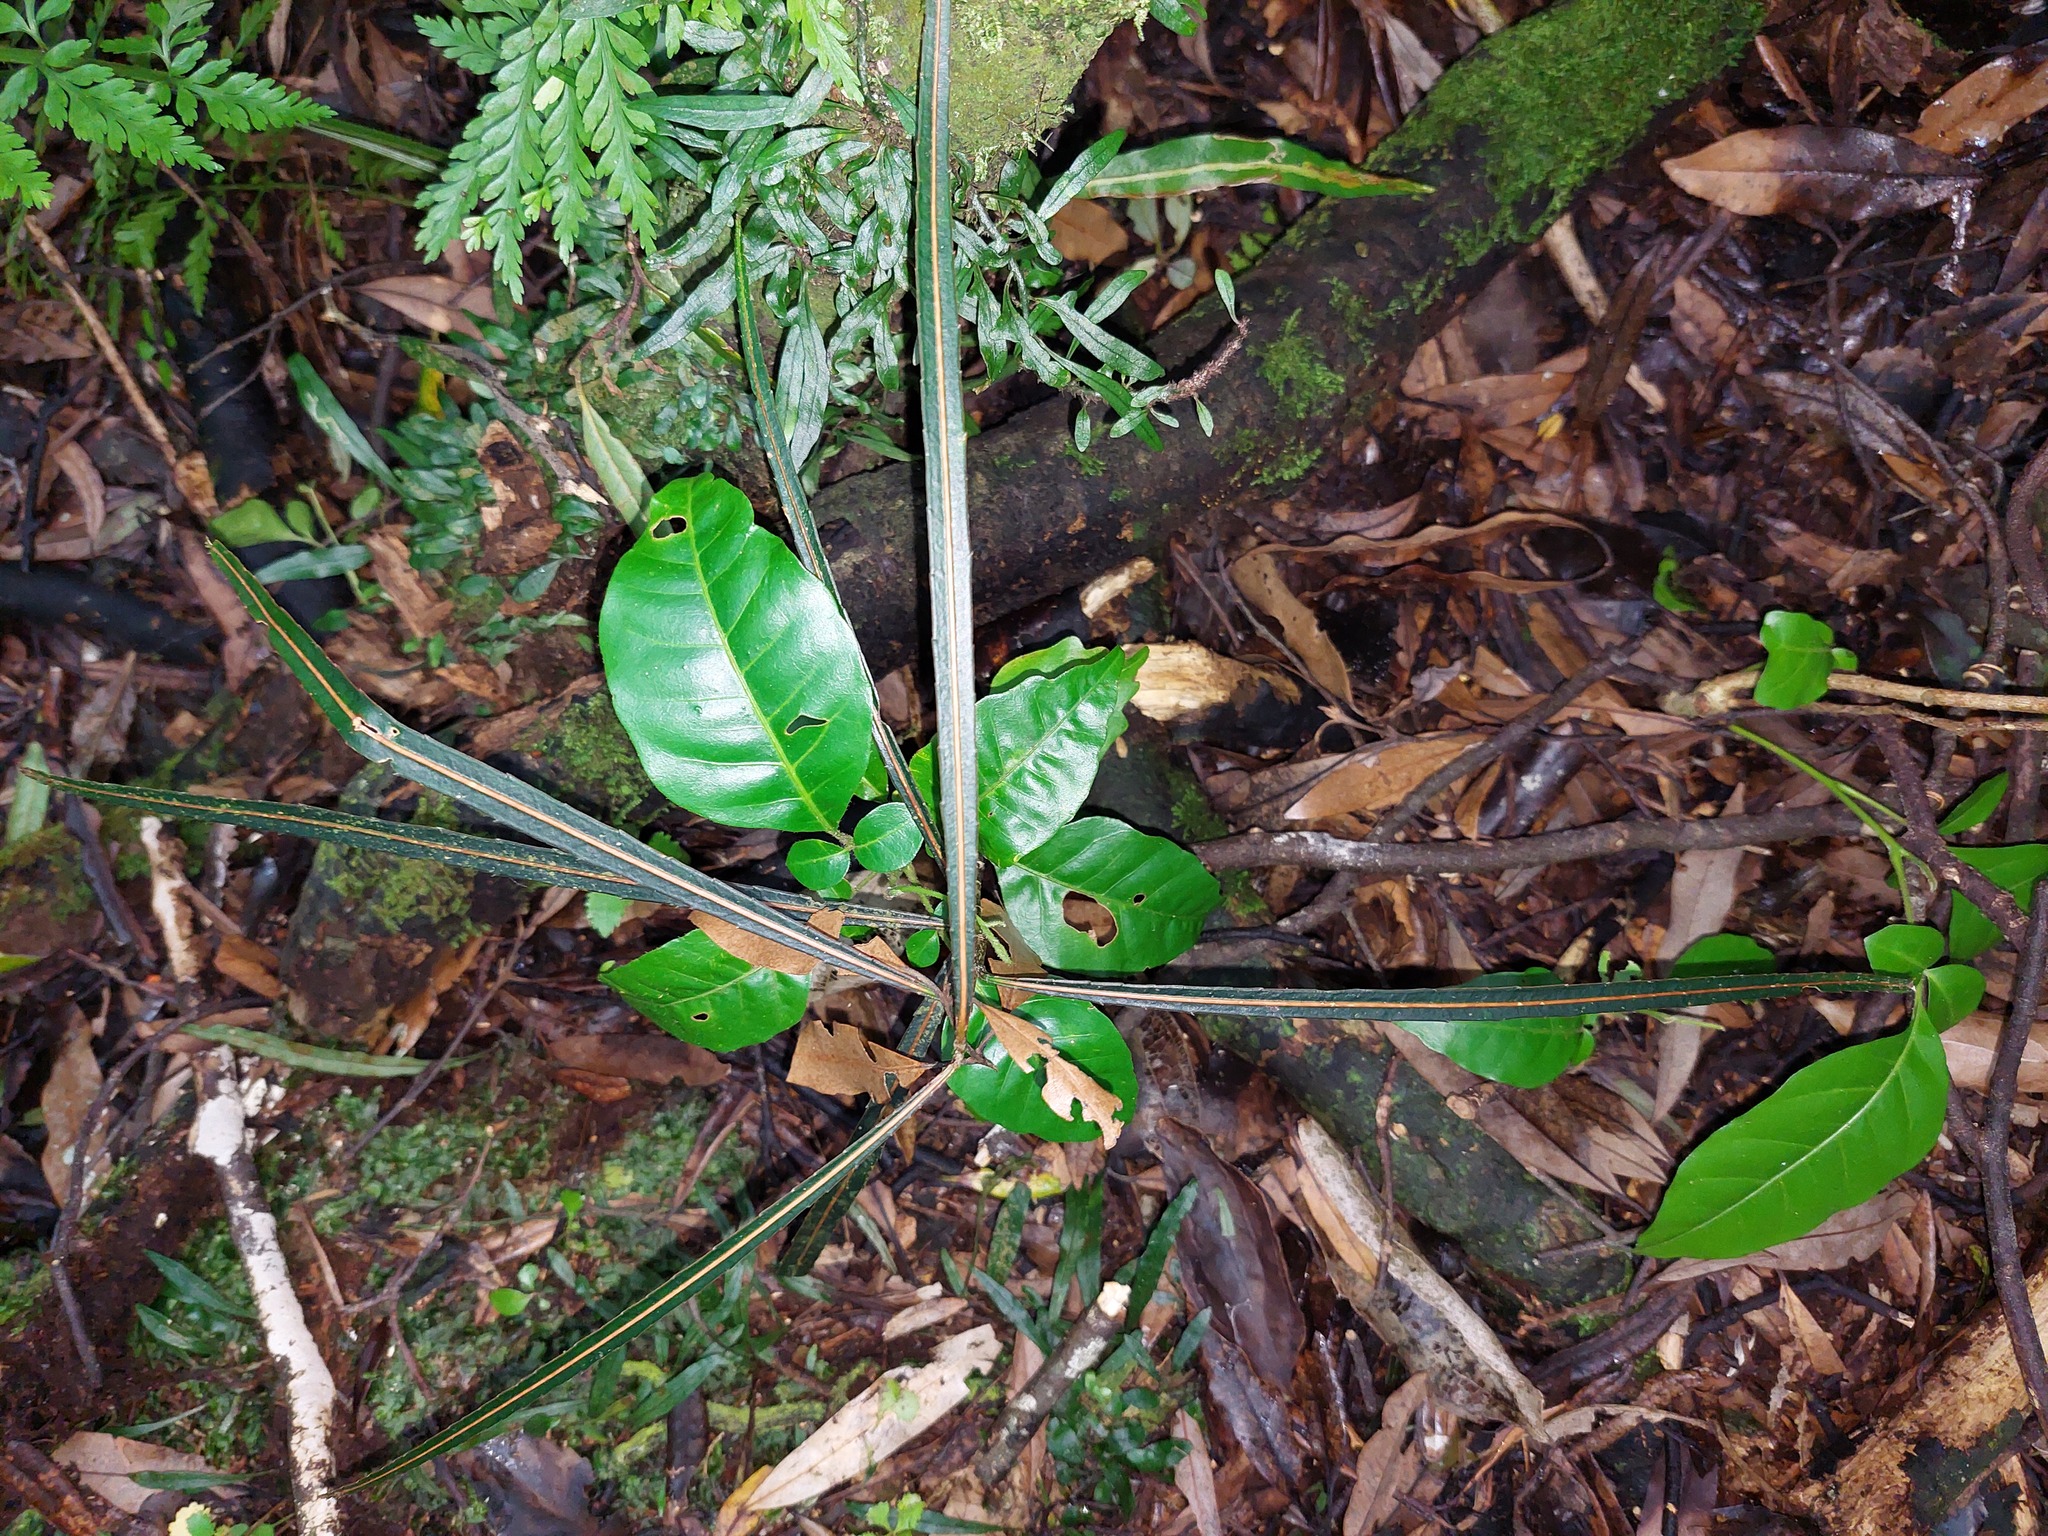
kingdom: Plantae
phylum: Tracheophyta
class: Magnoliopsida
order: Apiales
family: Araliaceae
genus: Pseudopanax
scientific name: Pseudopanax crassifolius
